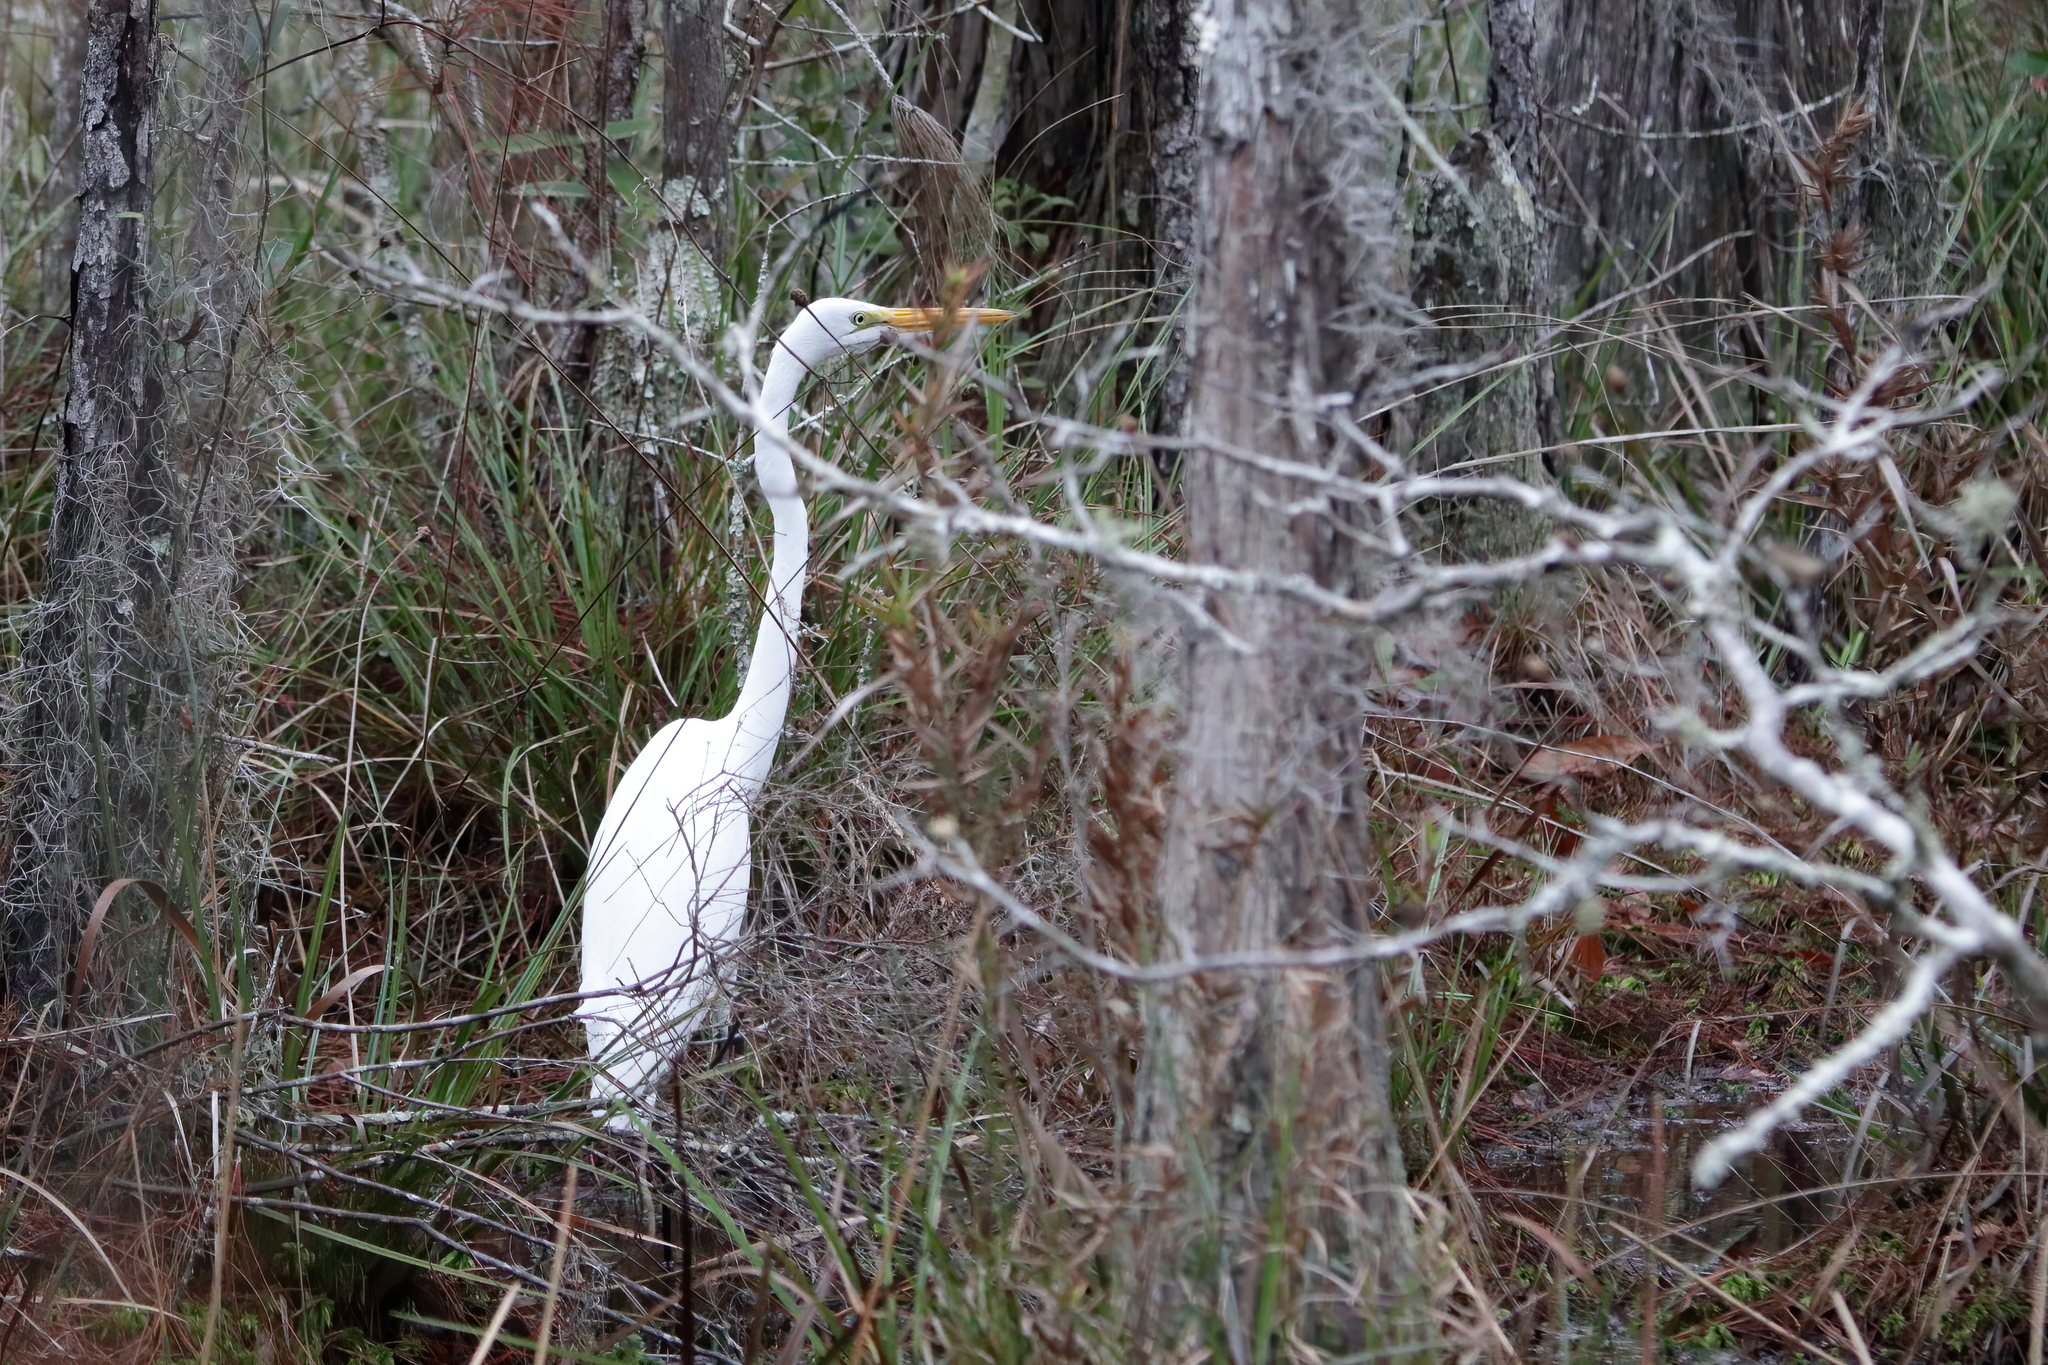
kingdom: Animalia
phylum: Chordata
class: Aves
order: Pelecaniformes
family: Ardeidae
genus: Ardea
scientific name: Ardea alba
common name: Great egret
